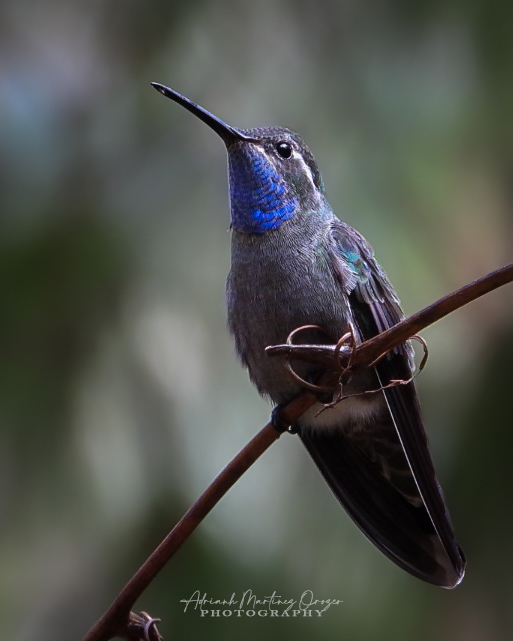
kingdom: Animalia
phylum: Chordata
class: Aves
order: Apodiformes
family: Trochilidae
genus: Lampornis
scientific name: Lampornis clemenciae
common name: Blue-throated mountaingem
